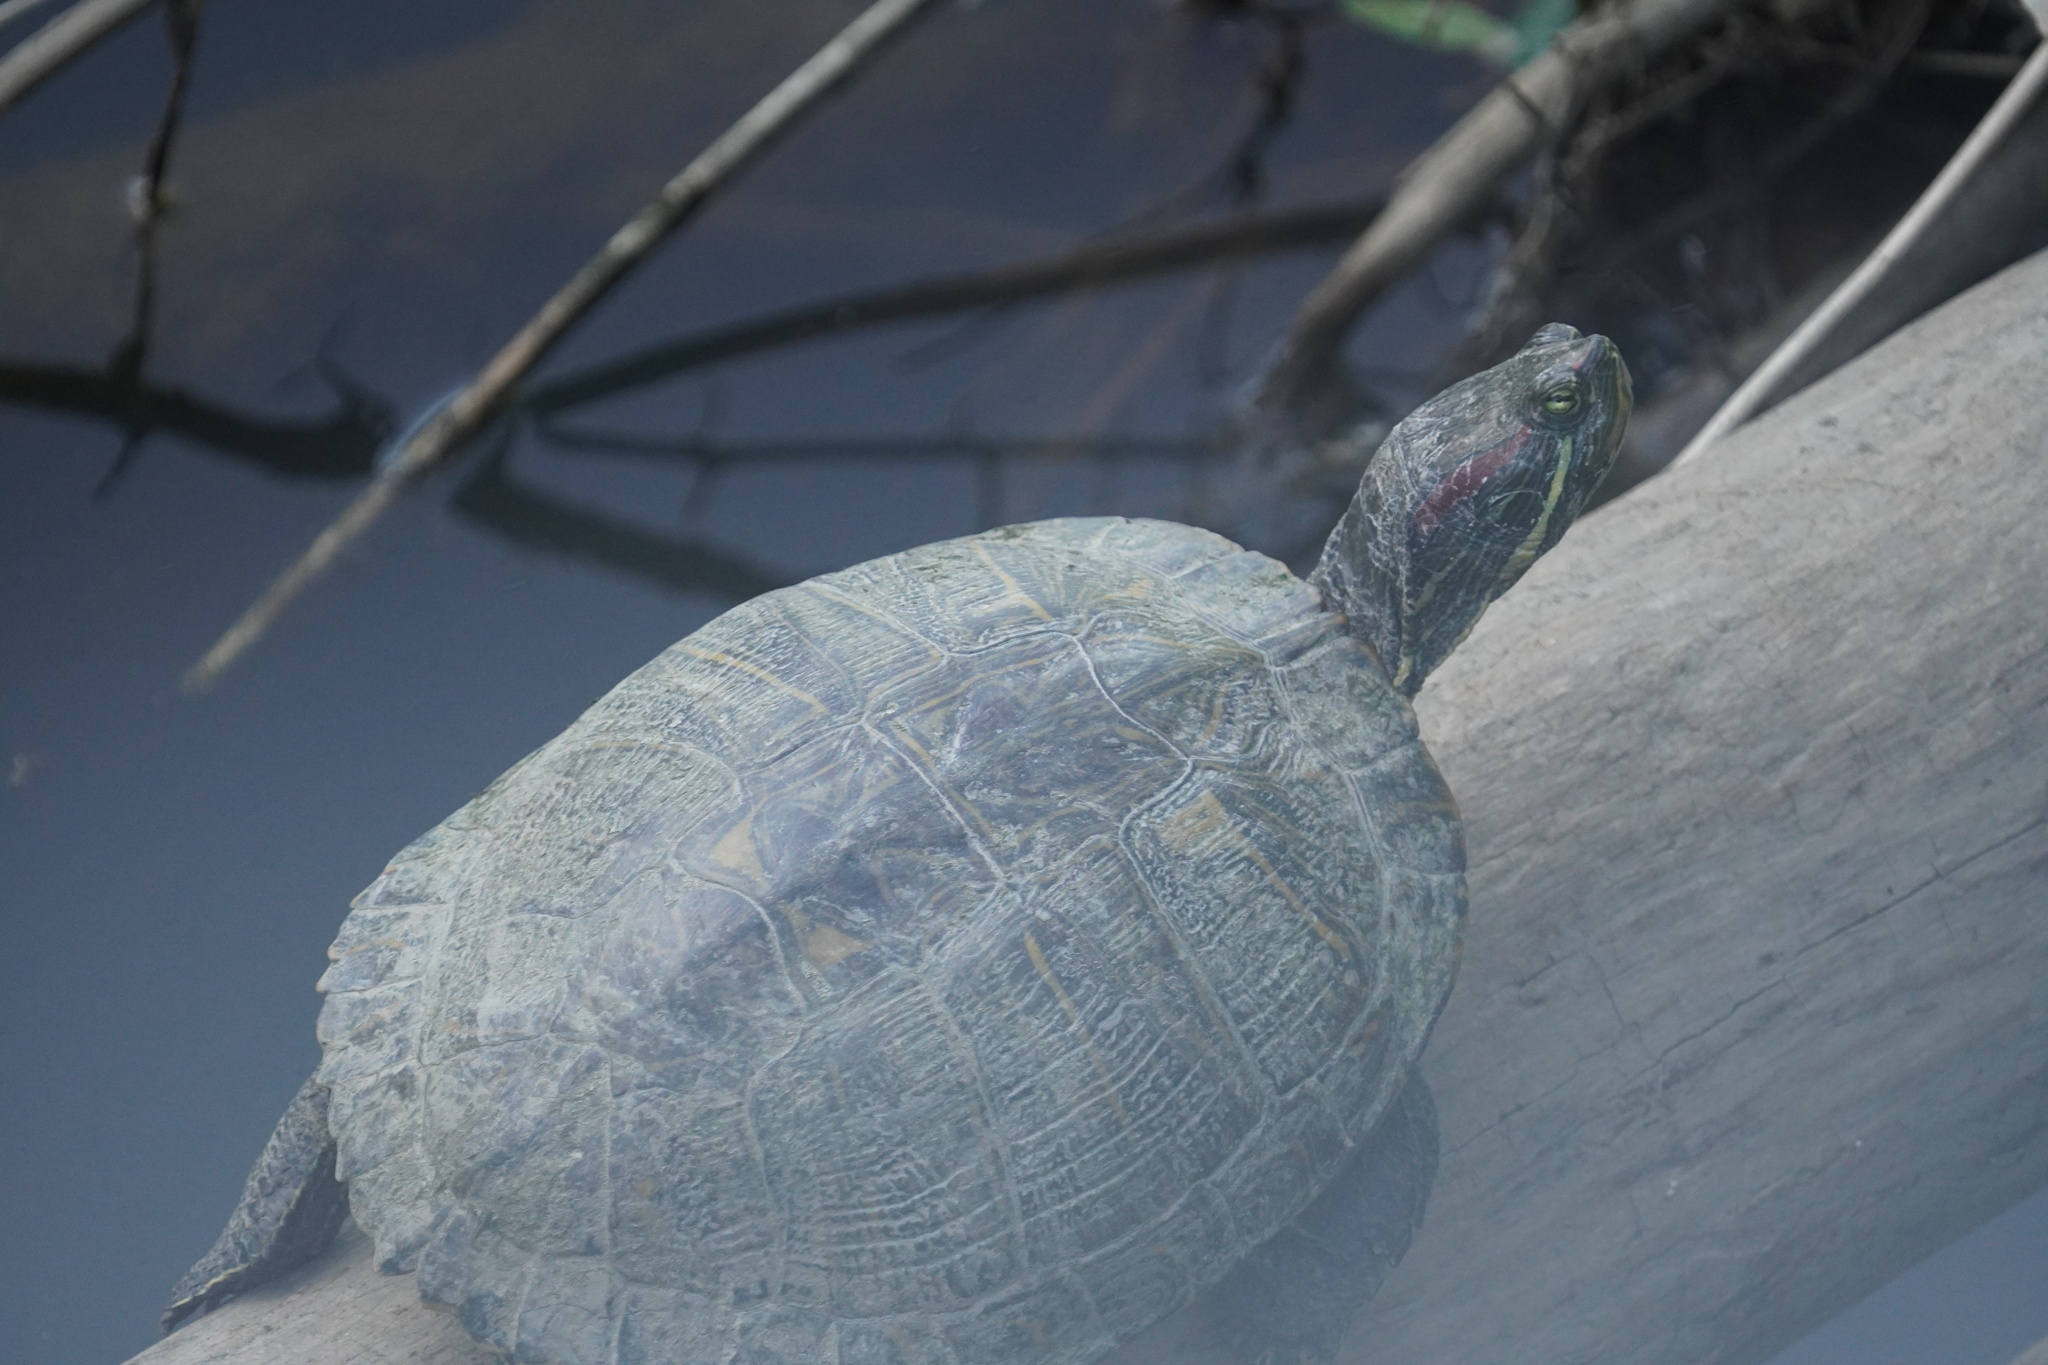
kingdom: Animalia
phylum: Chordata
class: Testudines
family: Emydidae
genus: Trachemys
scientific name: Trachemys scripta
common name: Slider
